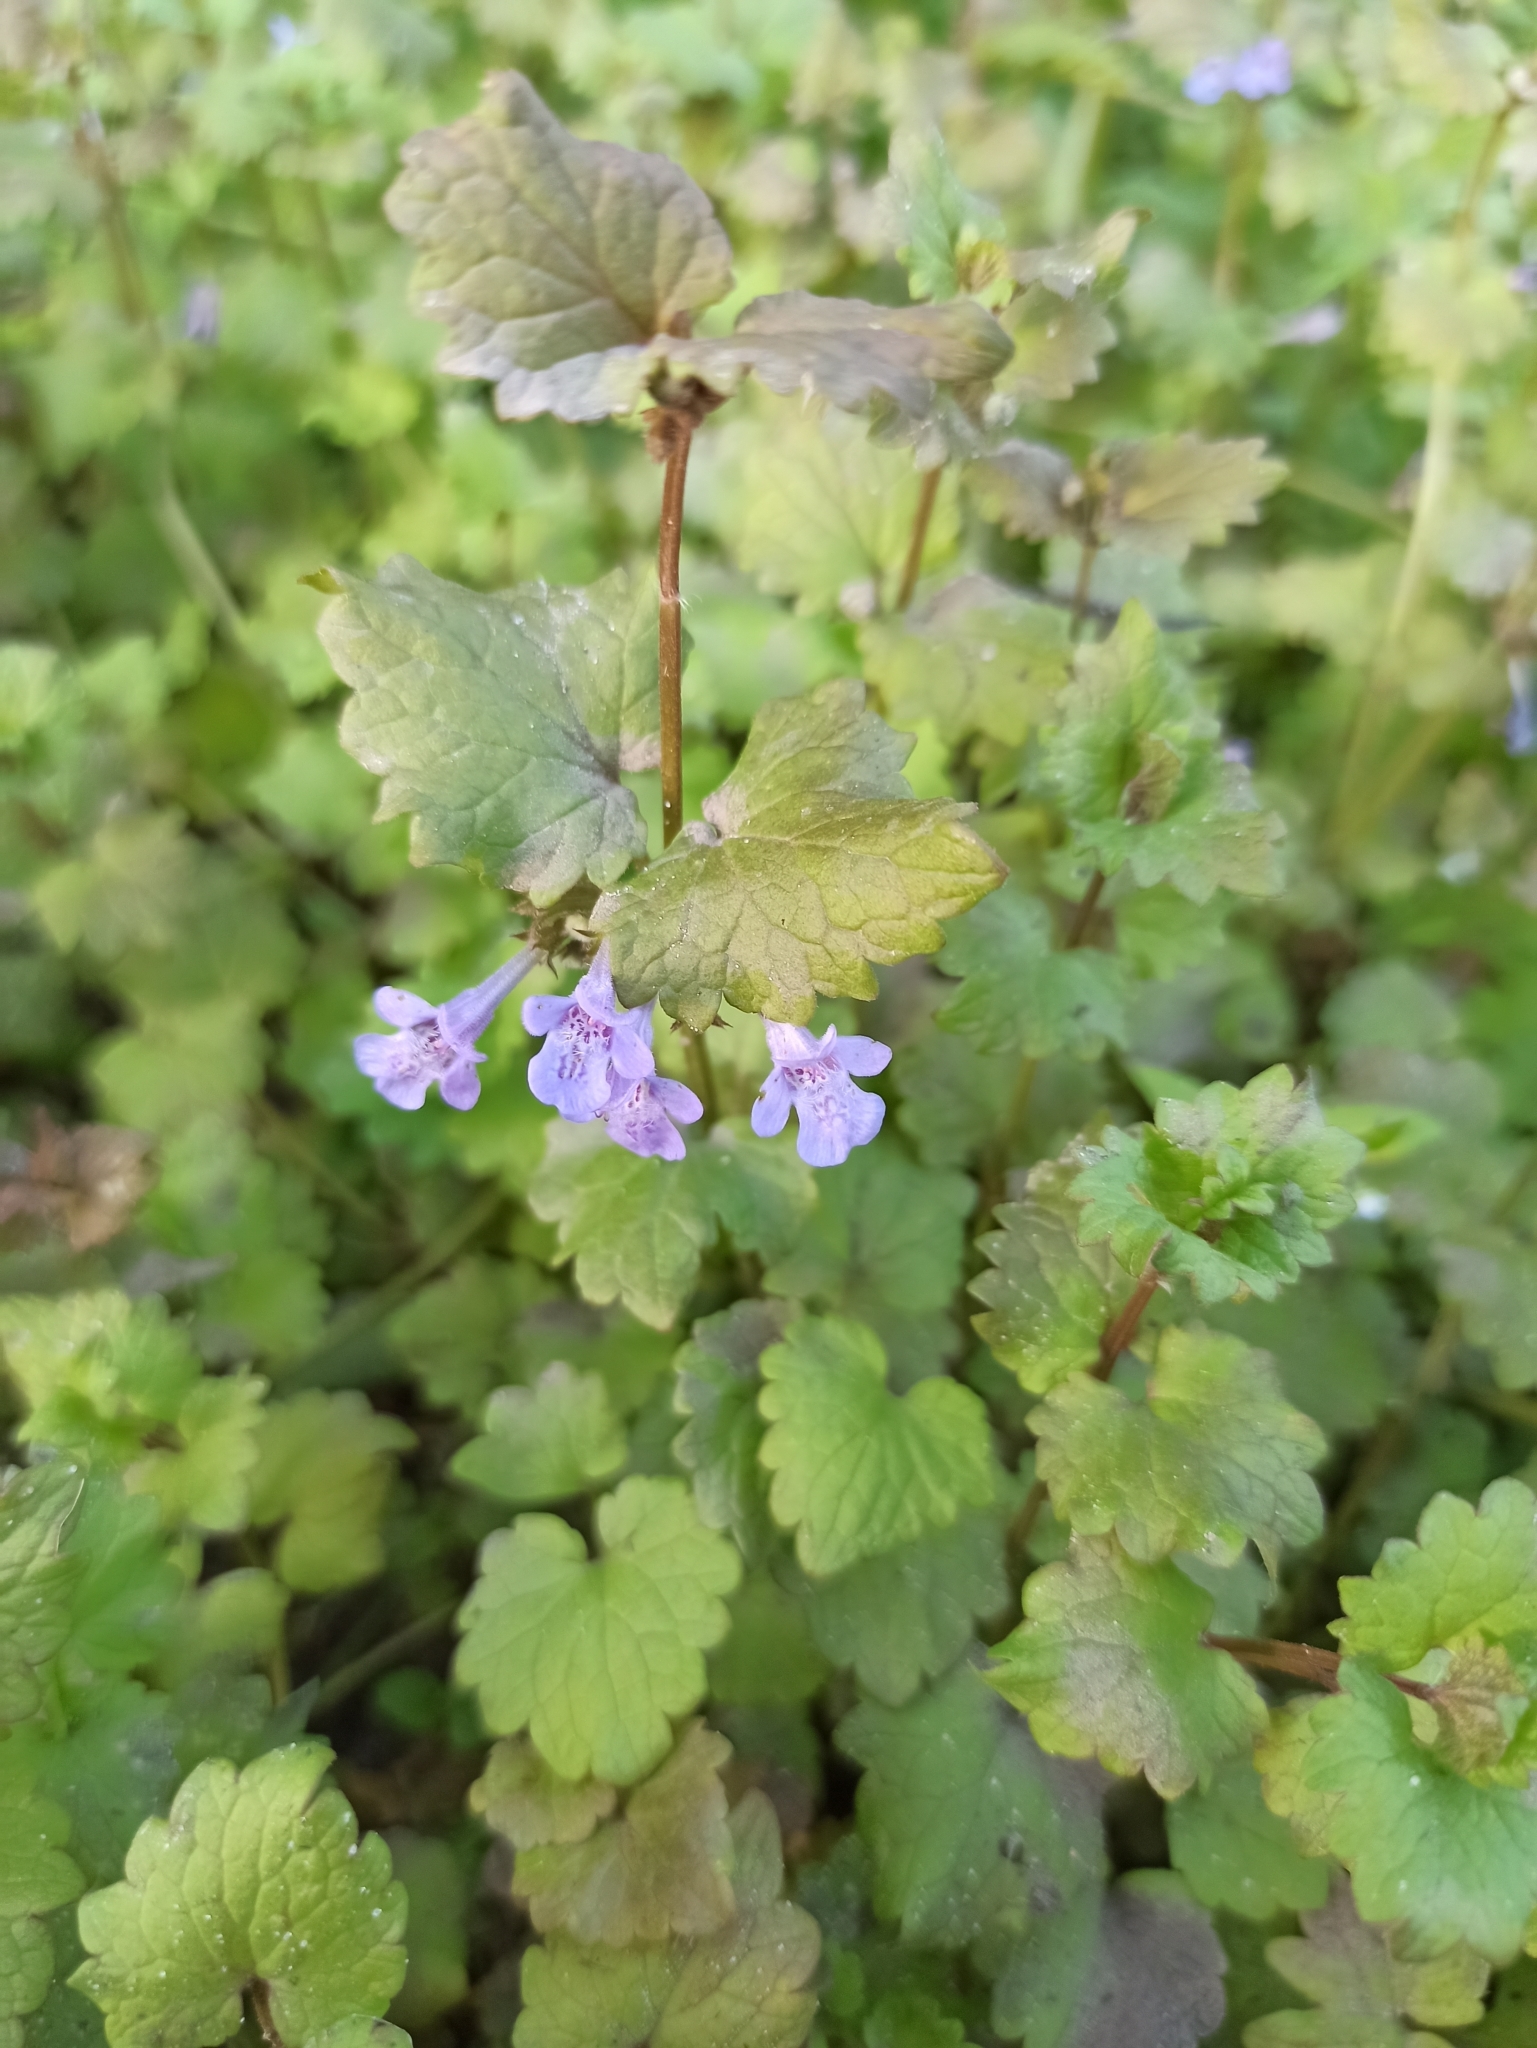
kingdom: Plantae
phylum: Tracheophyta
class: Magnoliopsida
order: Lamiales
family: Lamiaceae
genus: Glechoma
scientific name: Glechoma hederacea
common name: Ground ivy
